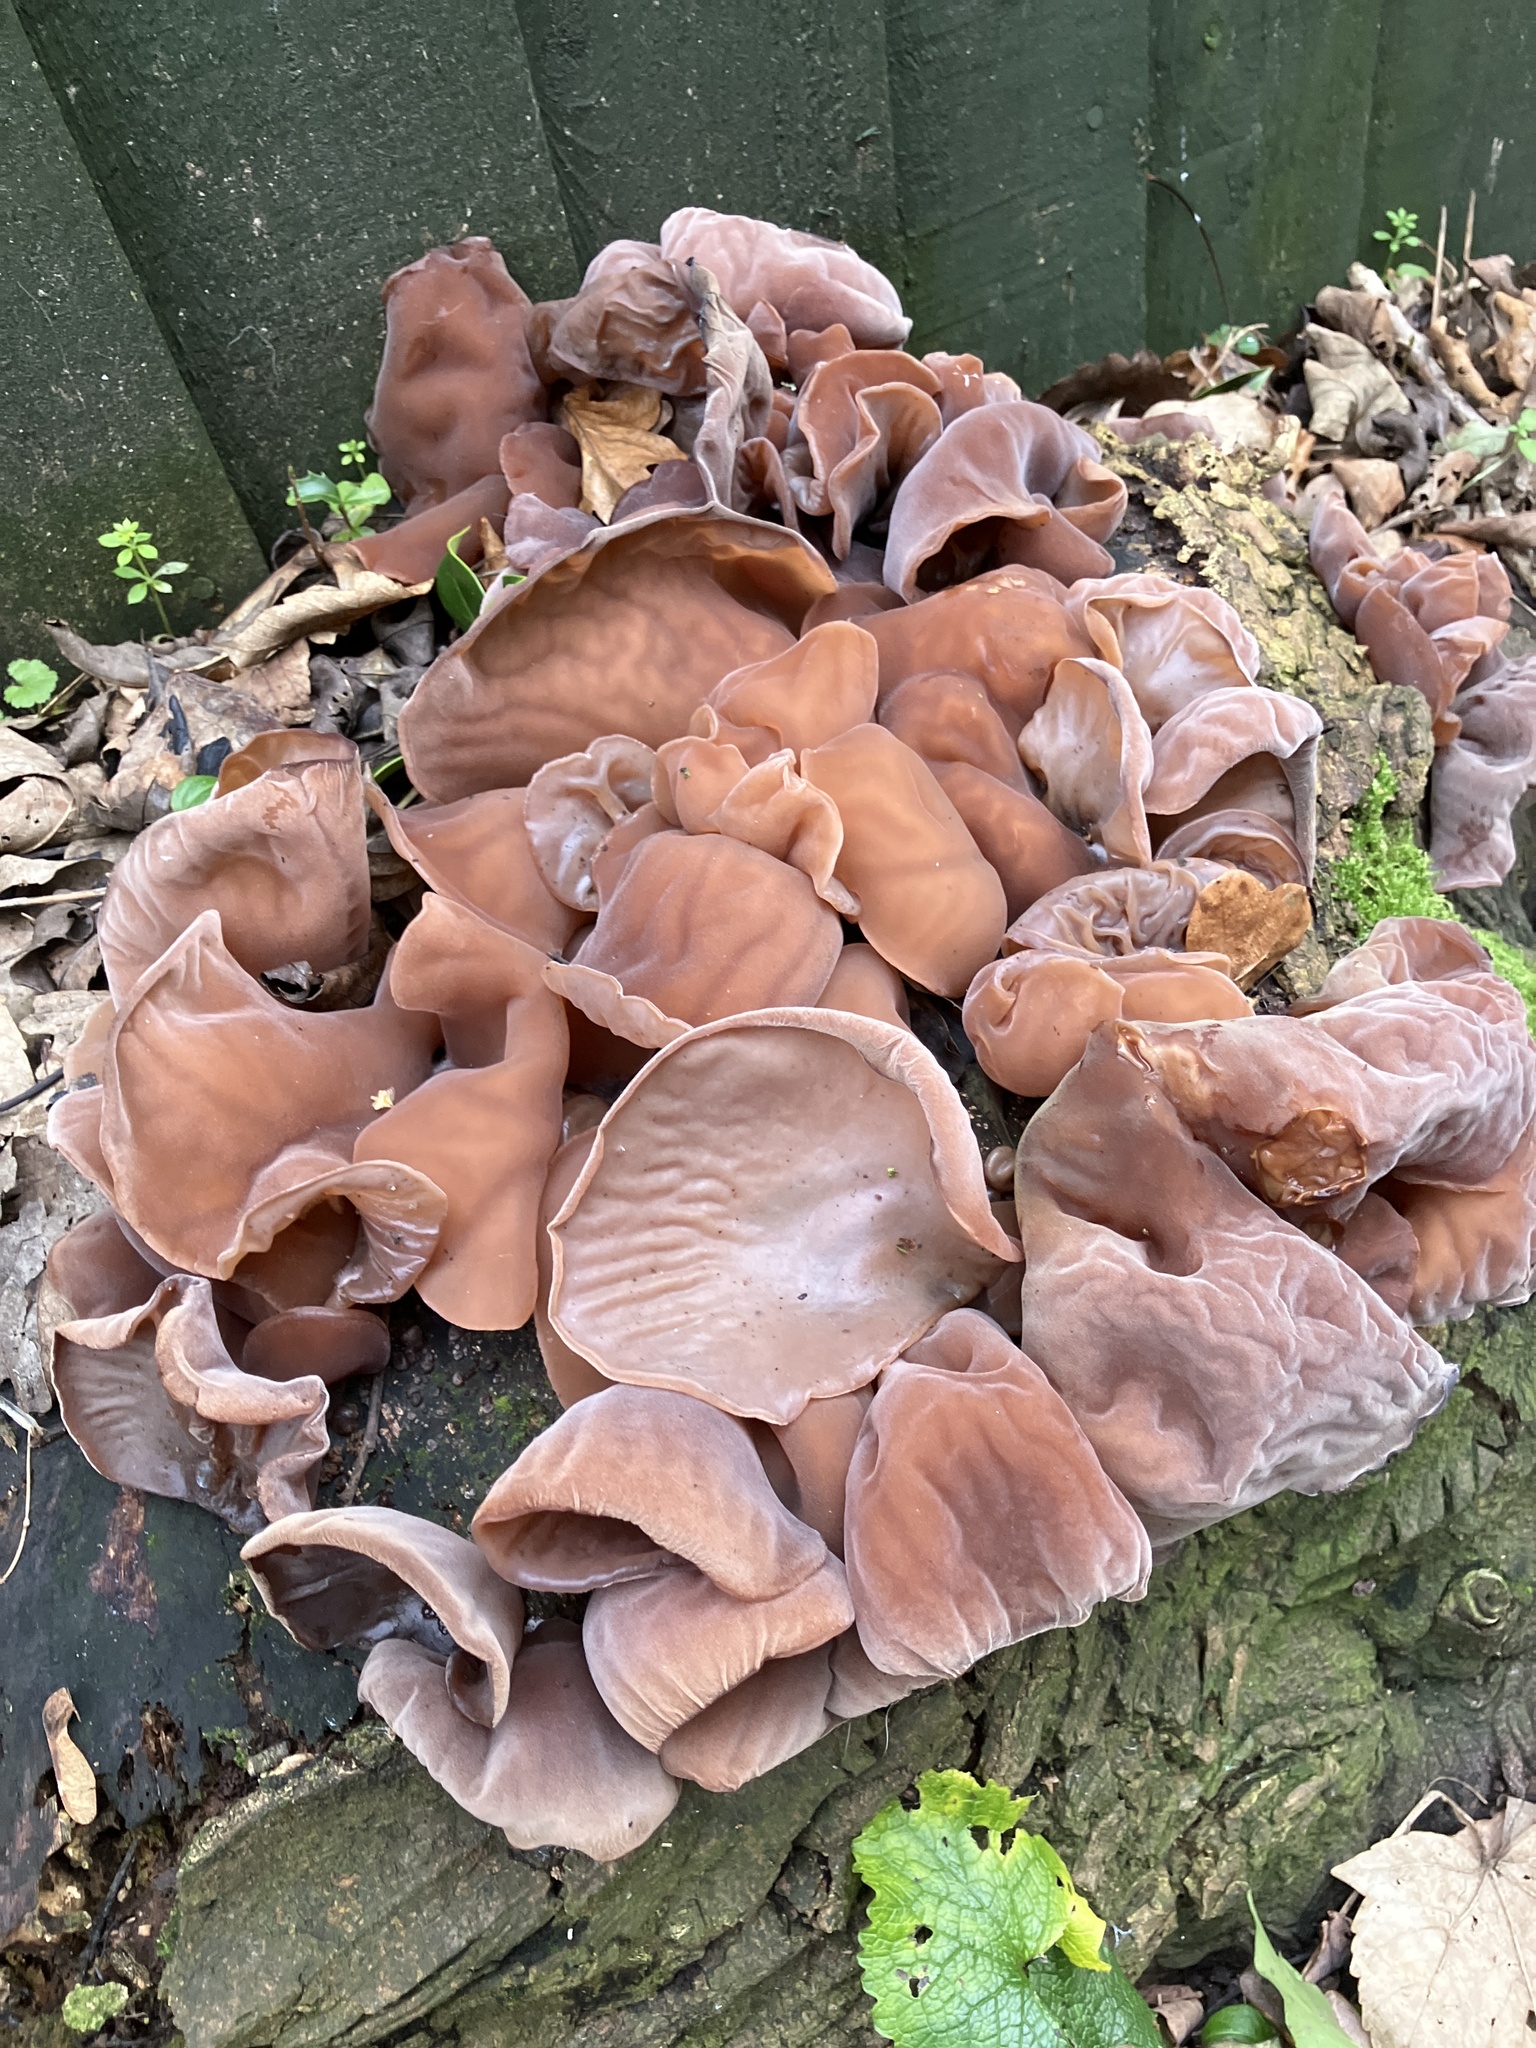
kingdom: Fungi
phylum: Basidiomycota
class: Agaricomycetes
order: Auriculariales
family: Auriculariaceae
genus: Auricularia
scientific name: Auricularia auricula-judae
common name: Jelly ear
